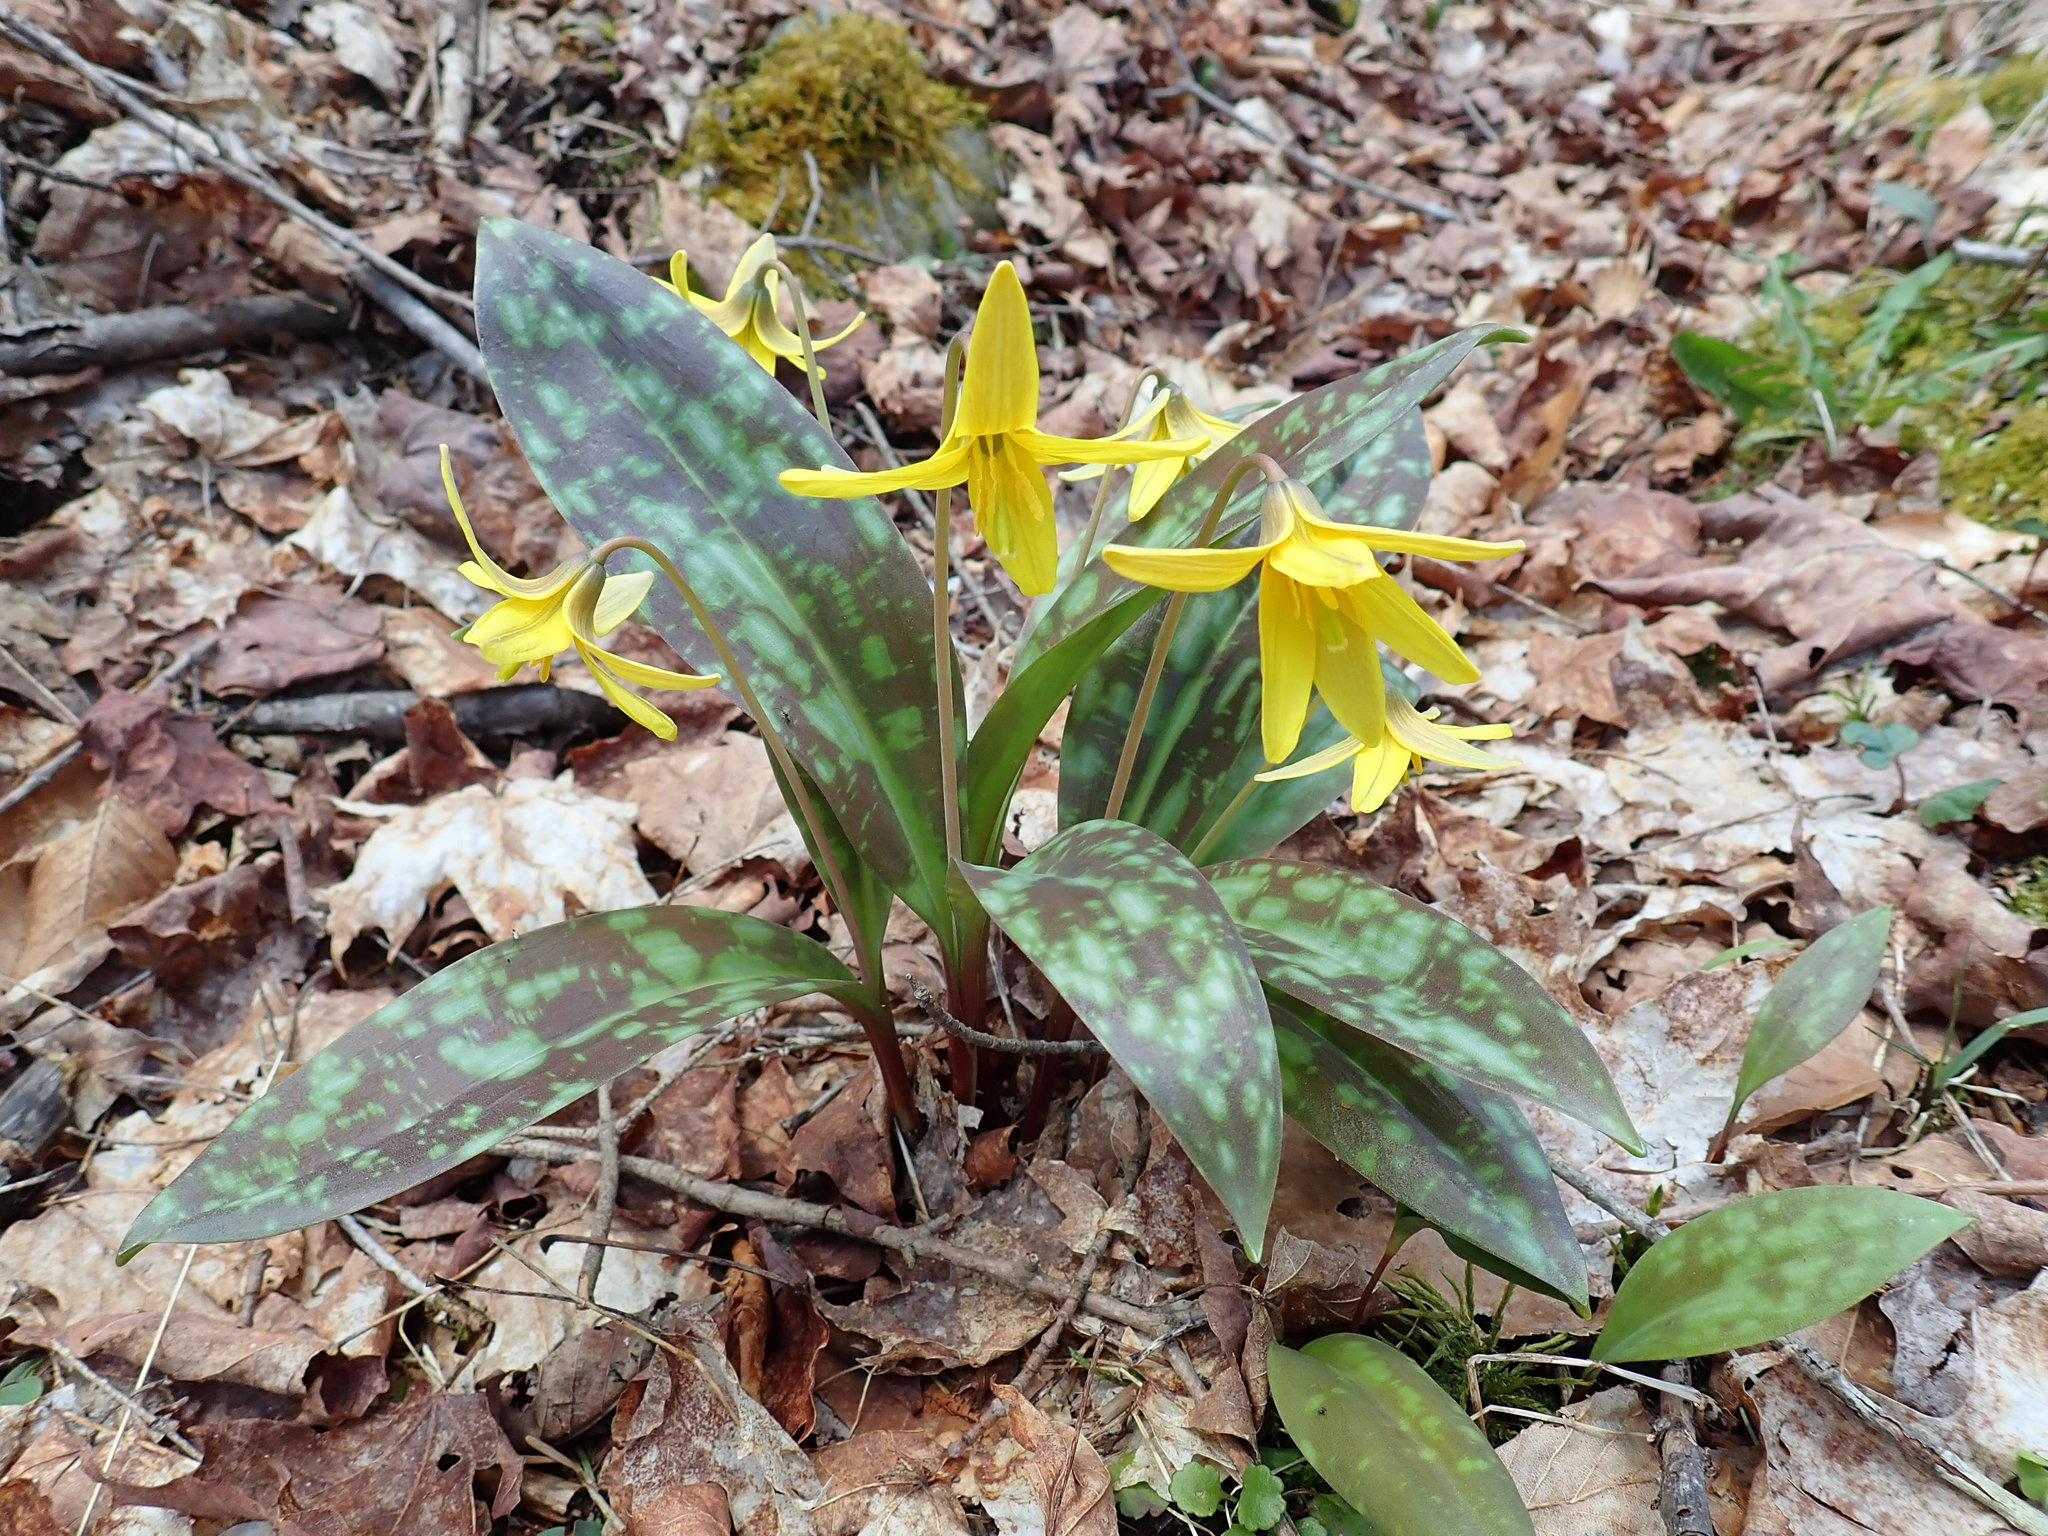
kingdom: Plantae
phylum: Tracheophyta
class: Liliopsida
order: Liliales
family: Liliaceae
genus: Erythronium
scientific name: Erythronium americanum
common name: Yellow adder's-tongue
